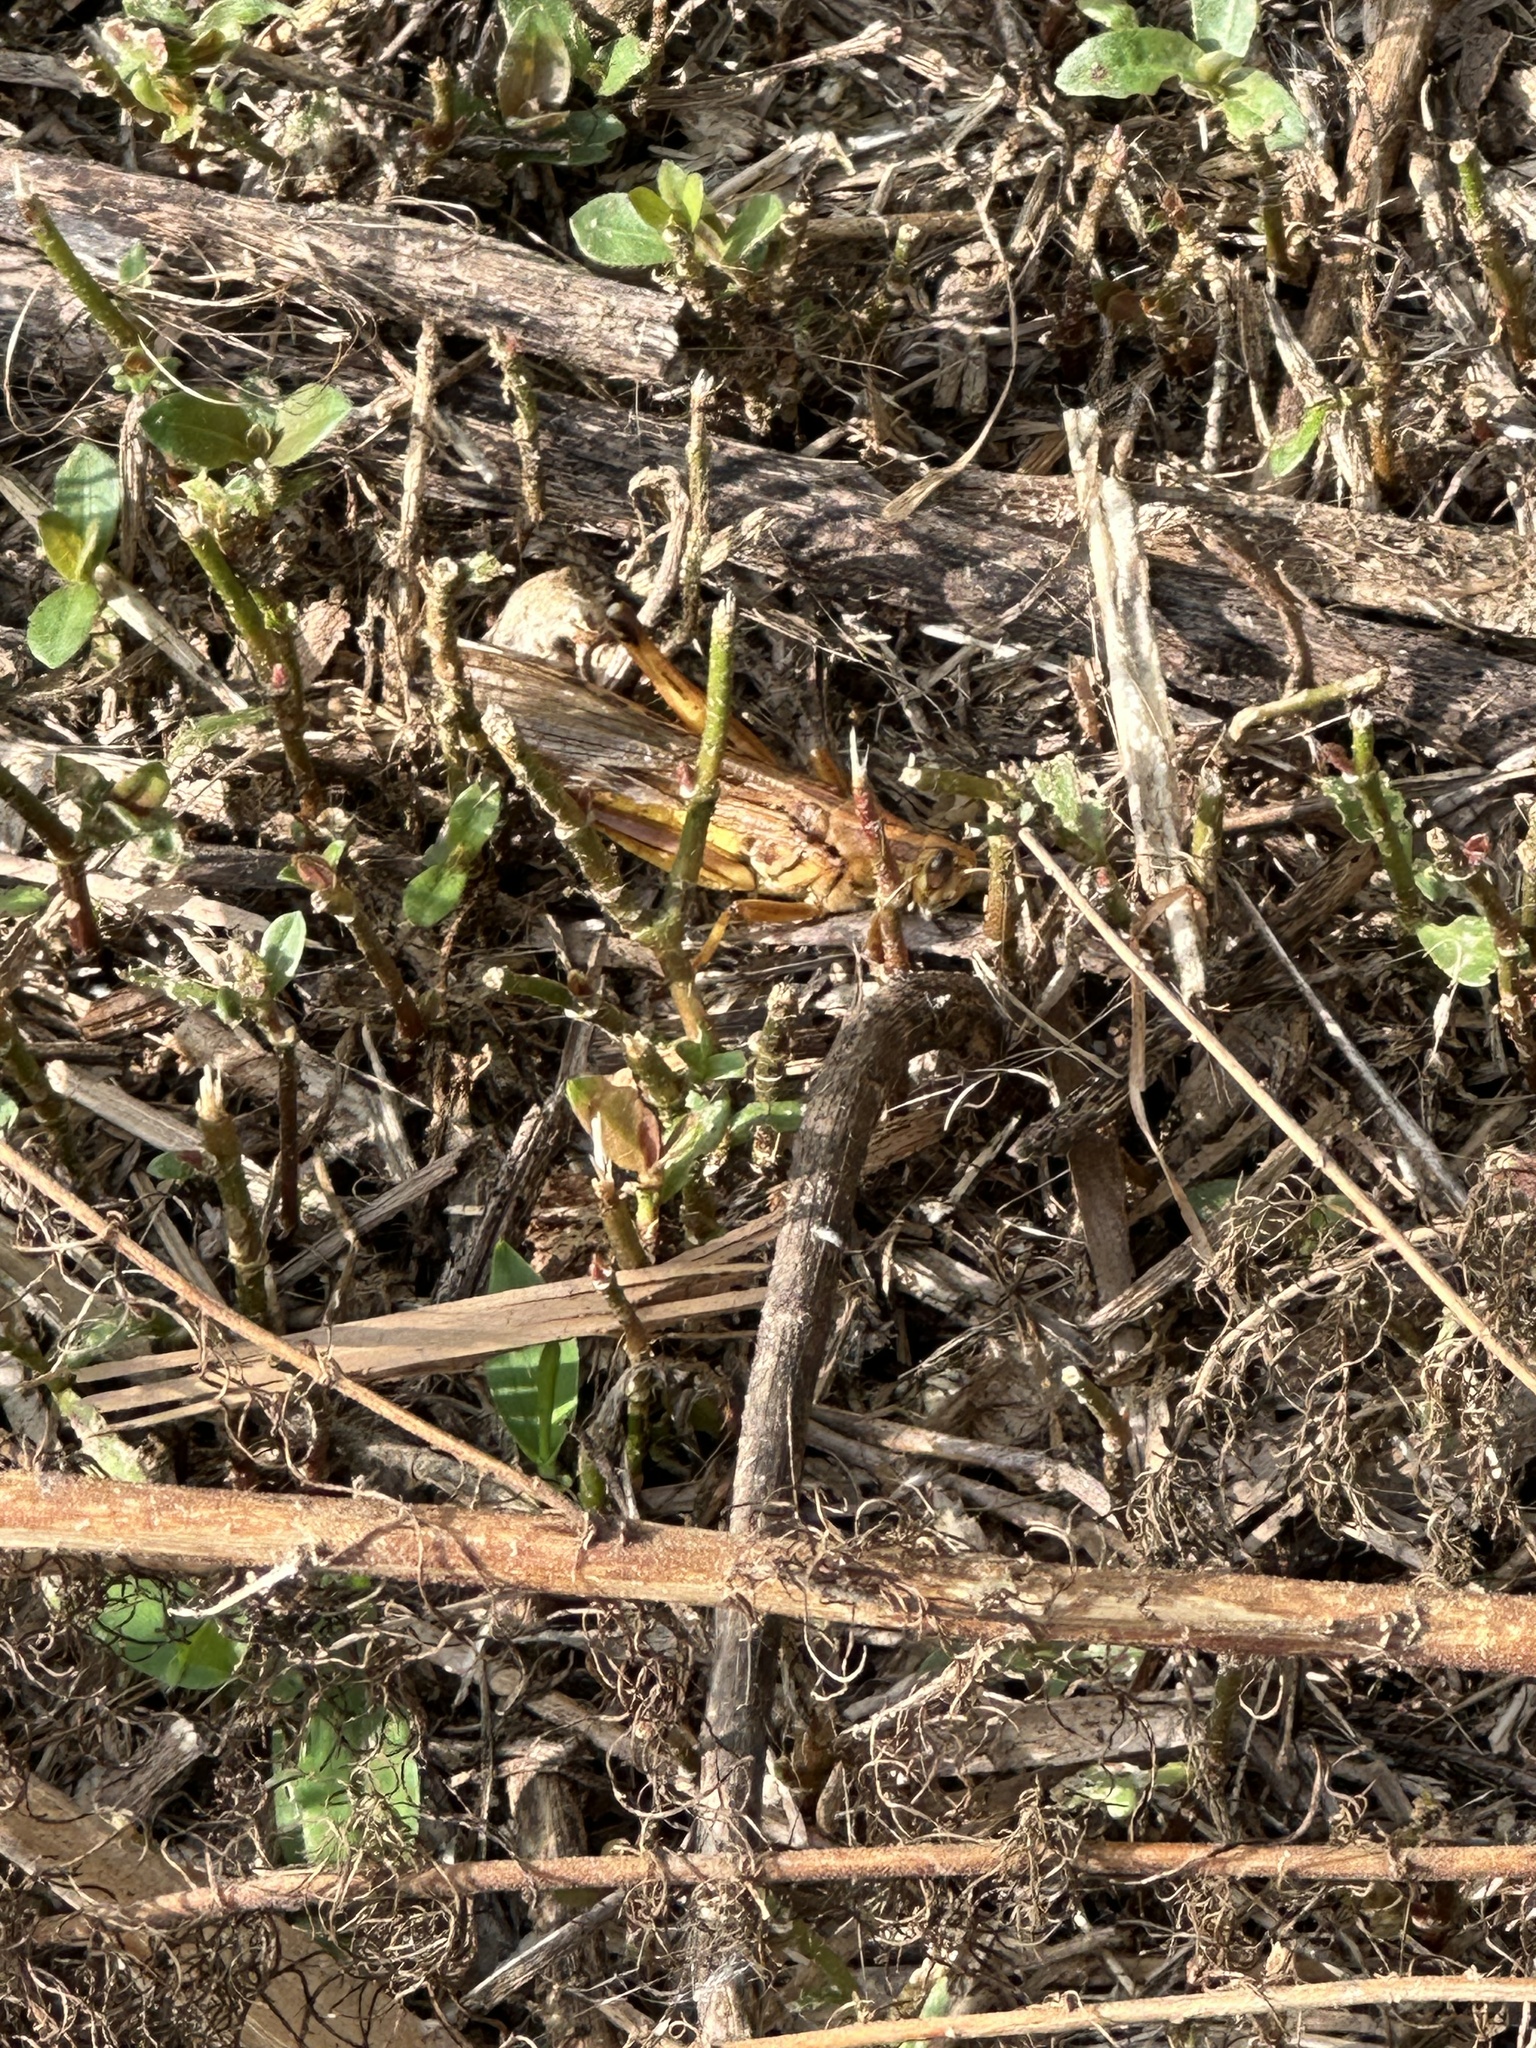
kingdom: Animalia
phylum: Arthropoda
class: Insecta
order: Orthoptera
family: Acrididae
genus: Schistocerca
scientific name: Schistocerca americana
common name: American bird locust
